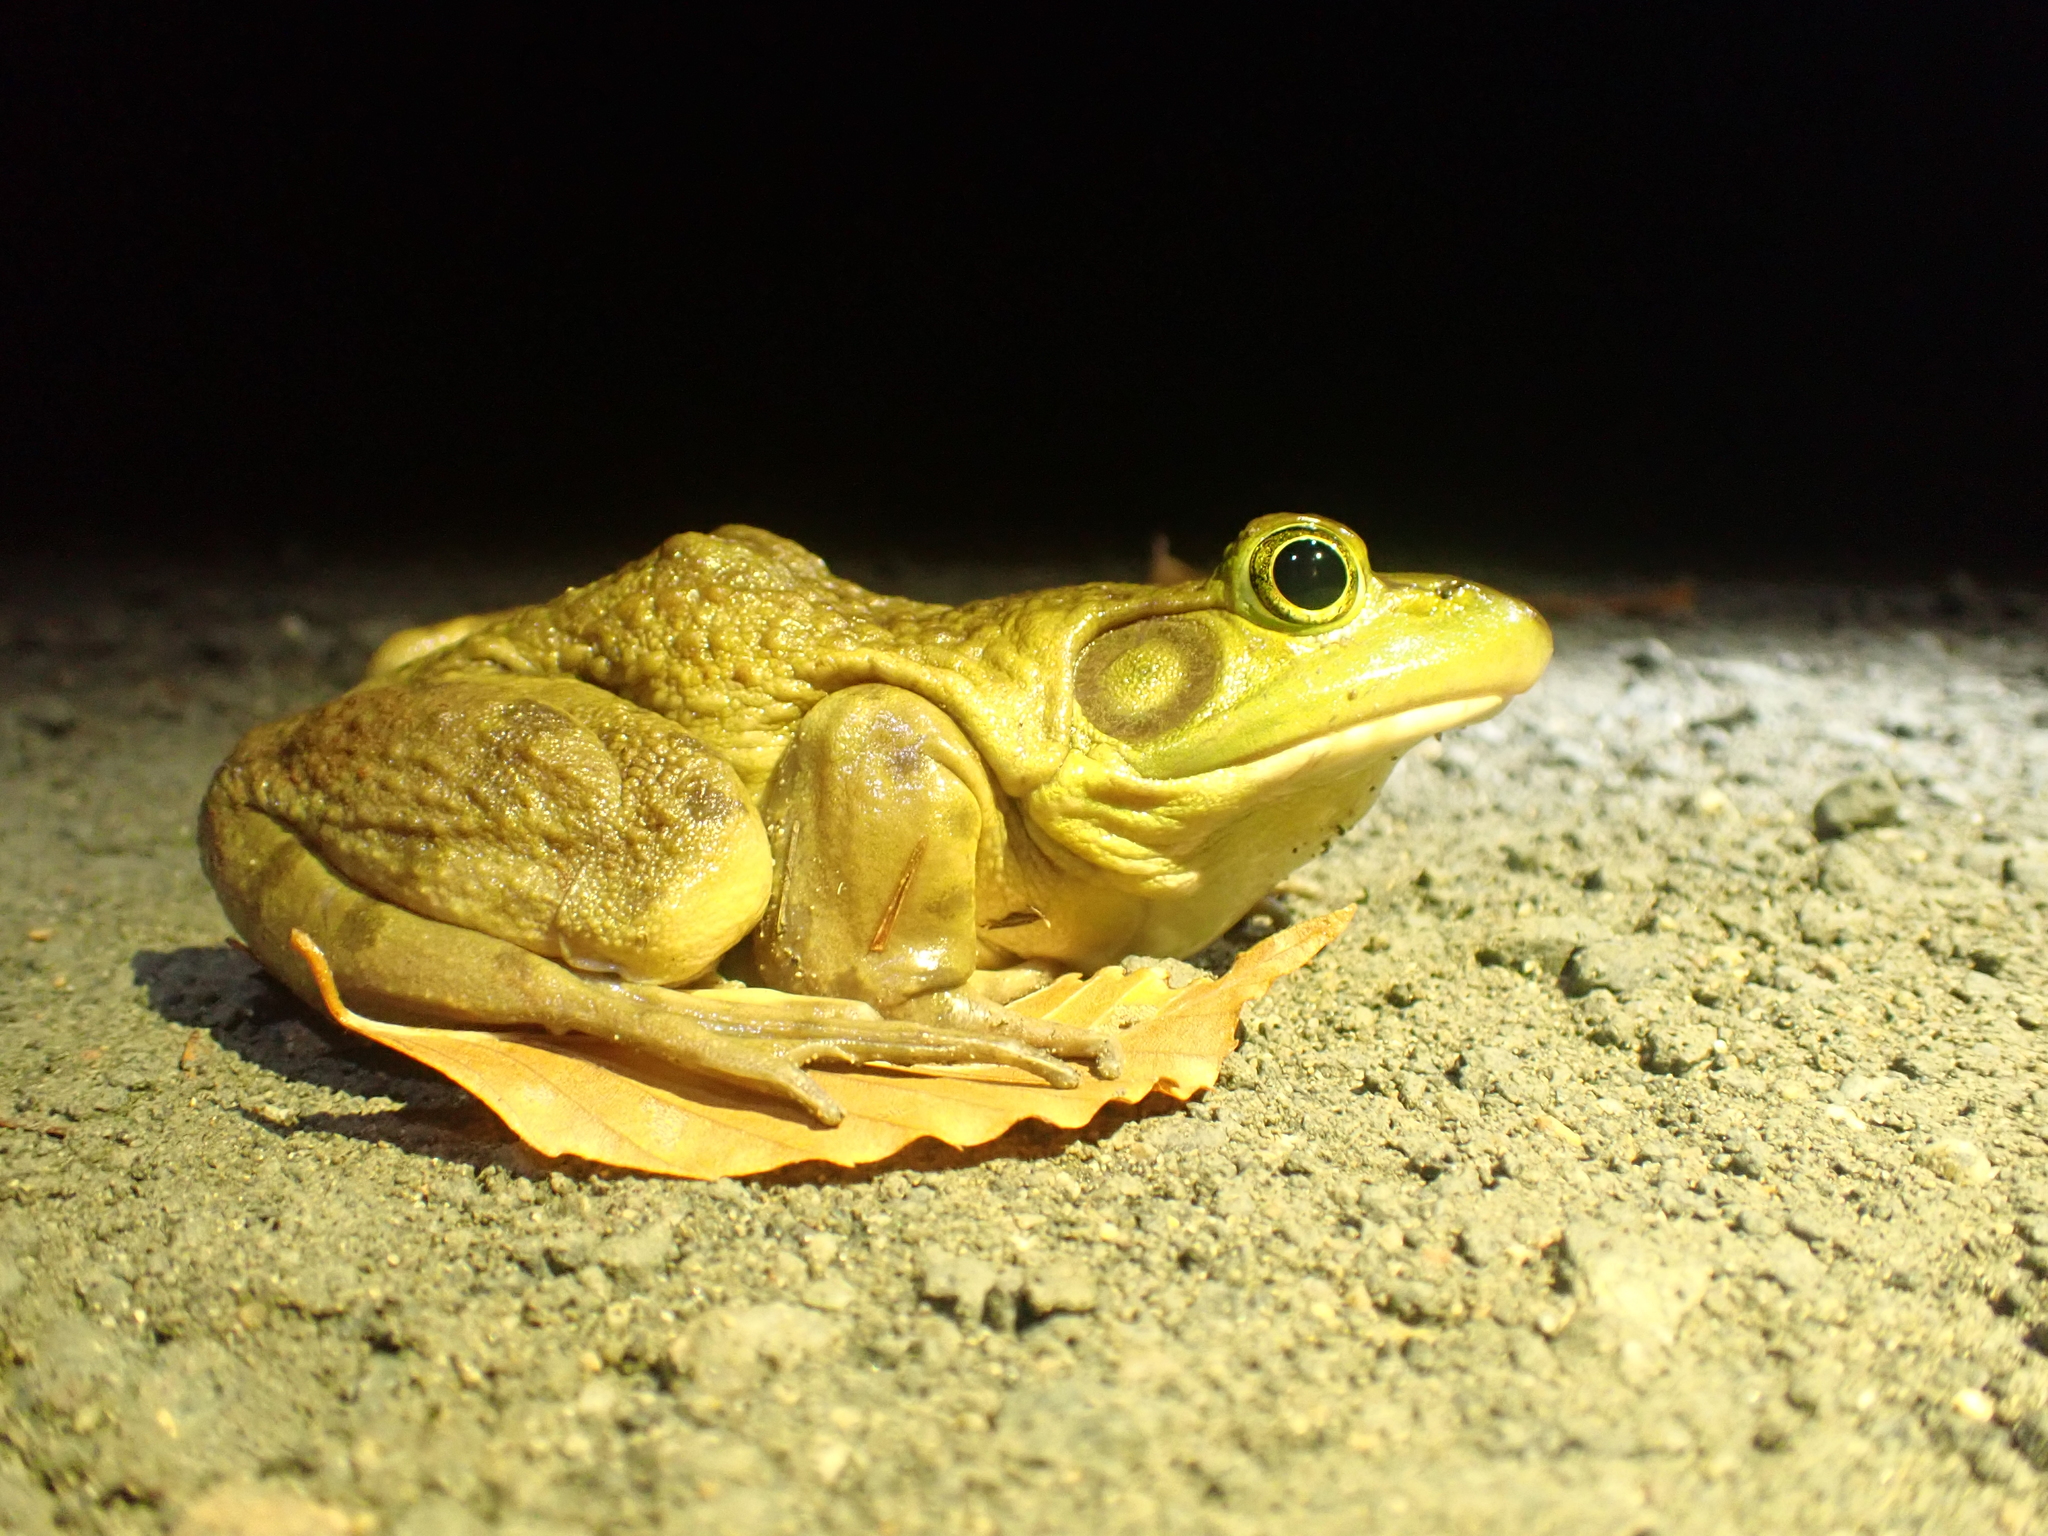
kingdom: Animalia
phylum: Chordata
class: Amphibia
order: Anura
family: Ranidae
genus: Lithobates
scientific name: Lithobates catesbeianus
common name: American bullfrog
